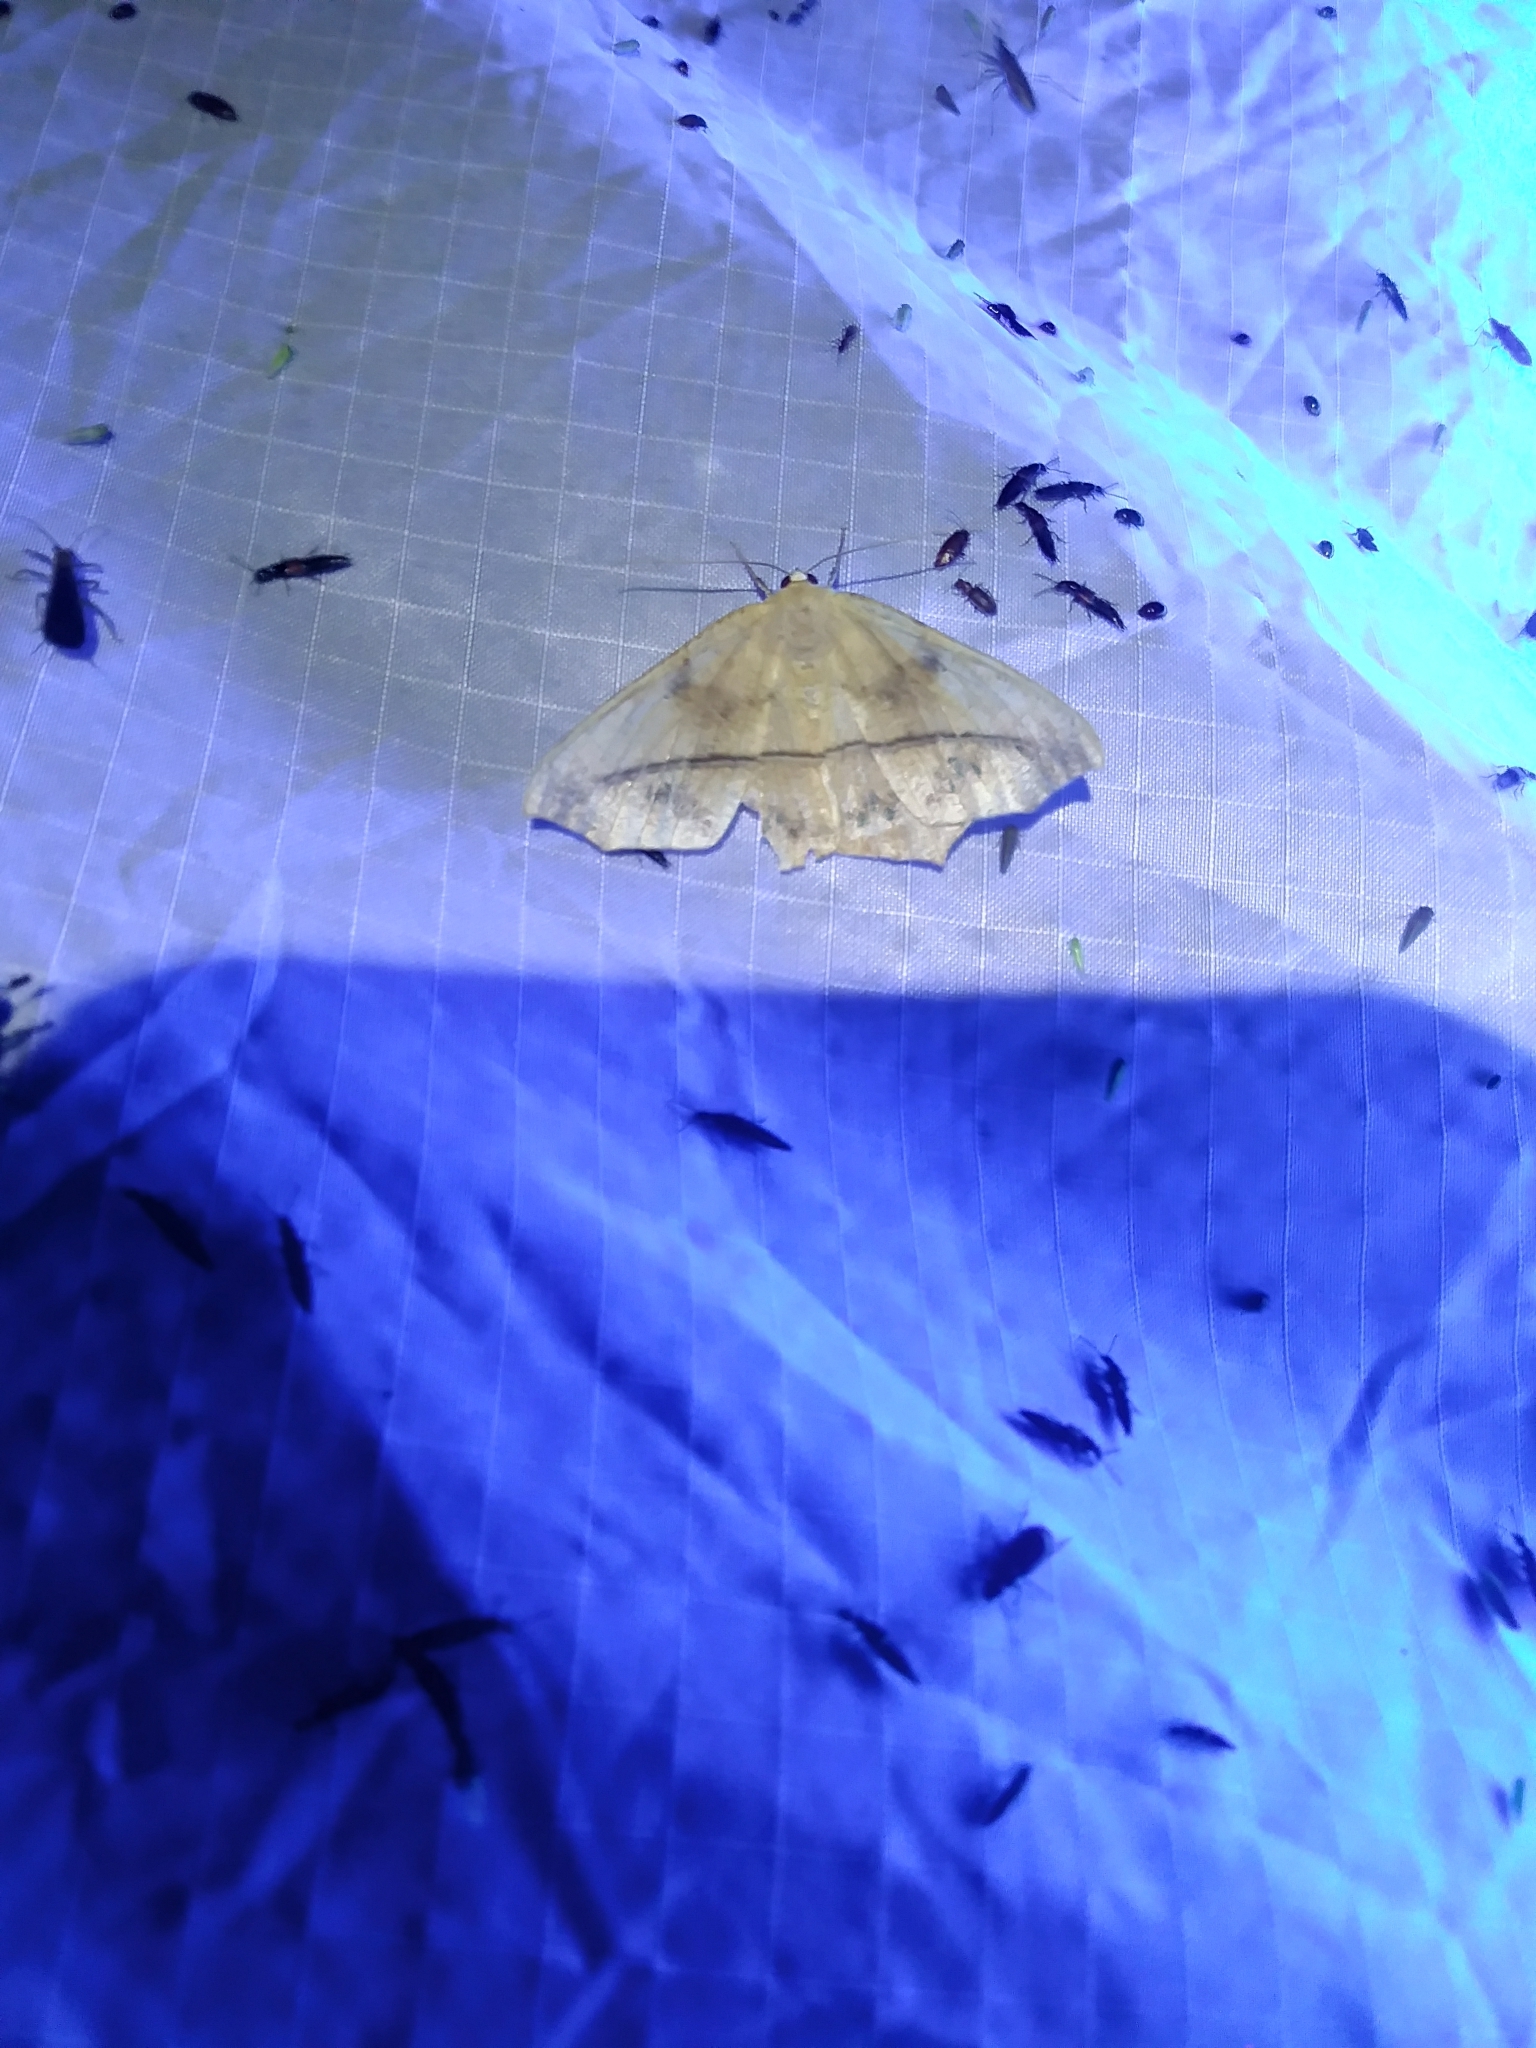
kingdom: Animalia
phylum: Arthropoda
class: Insecta
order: Lepidoptera
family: Geometridae
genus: Prochoerodes
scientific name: Prochoerodes lineola
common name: Large maple spanworm
